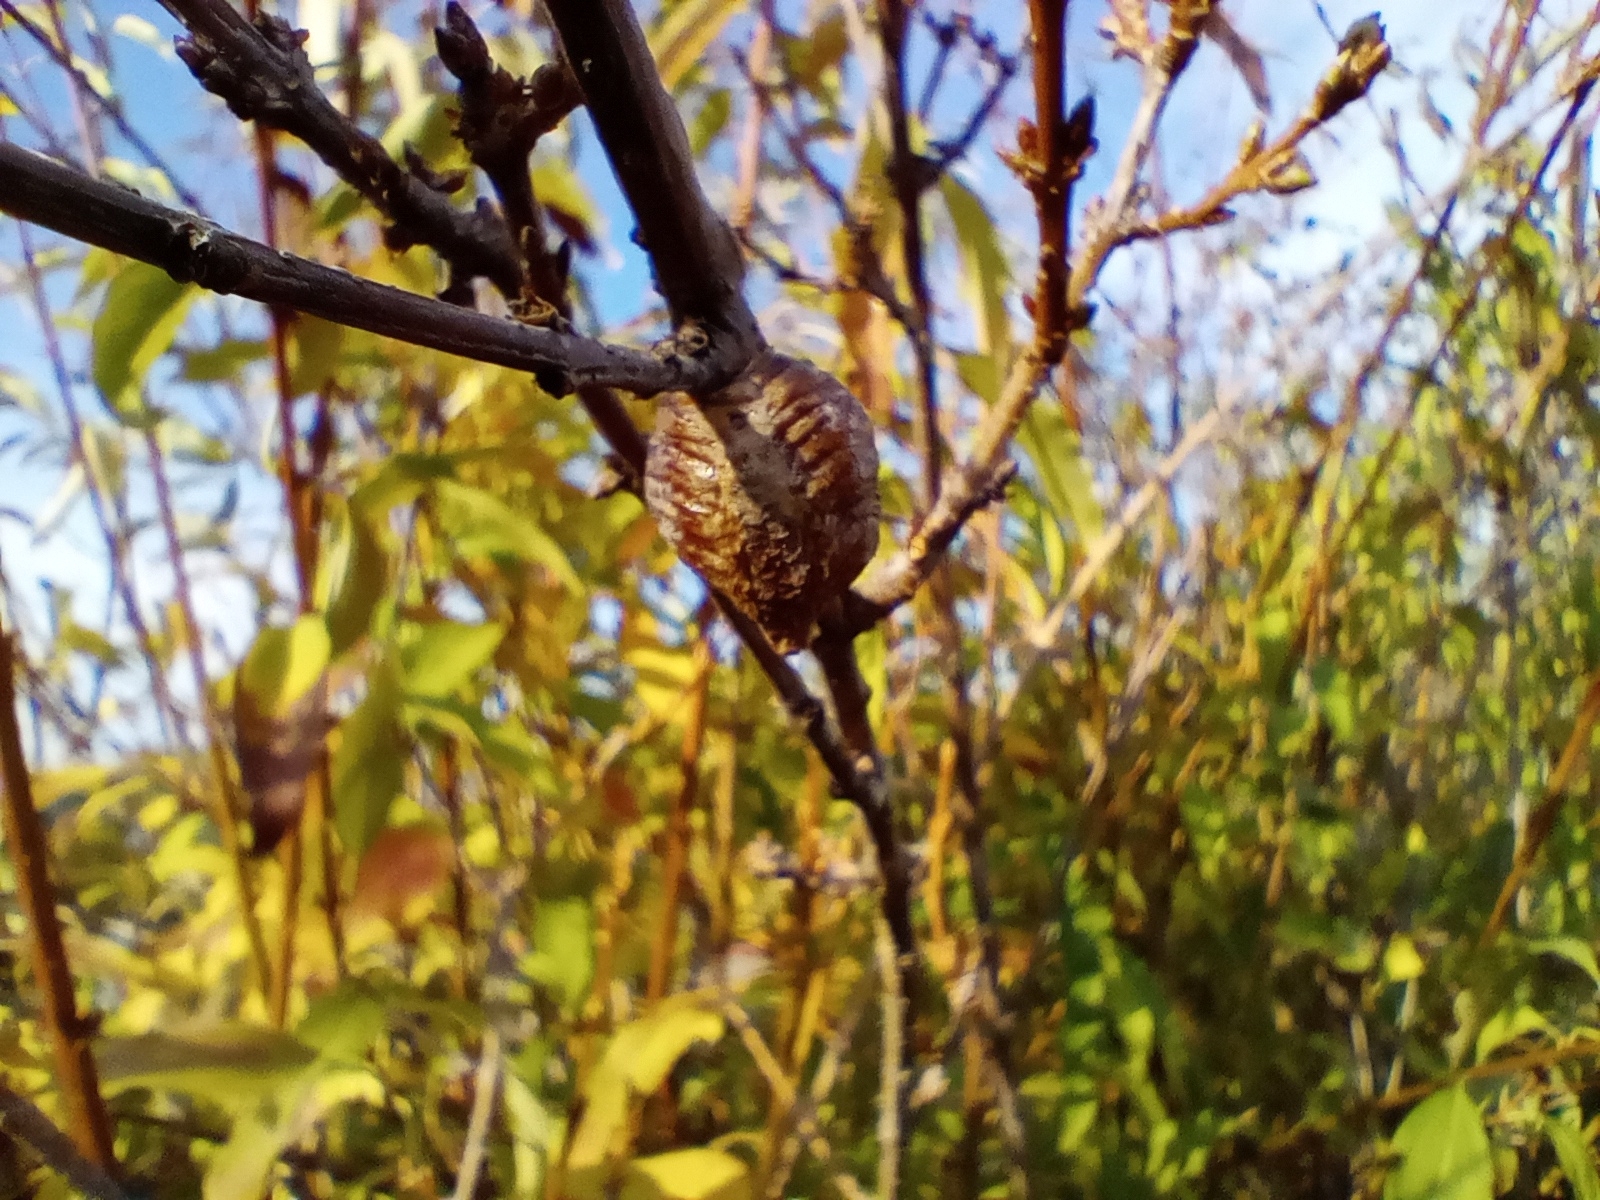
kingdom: Animalia
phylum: Arthropoda
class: Insecta
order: Mantodea
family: Mantidae
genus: Hierodula
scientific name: Hierodula transcaucasica
